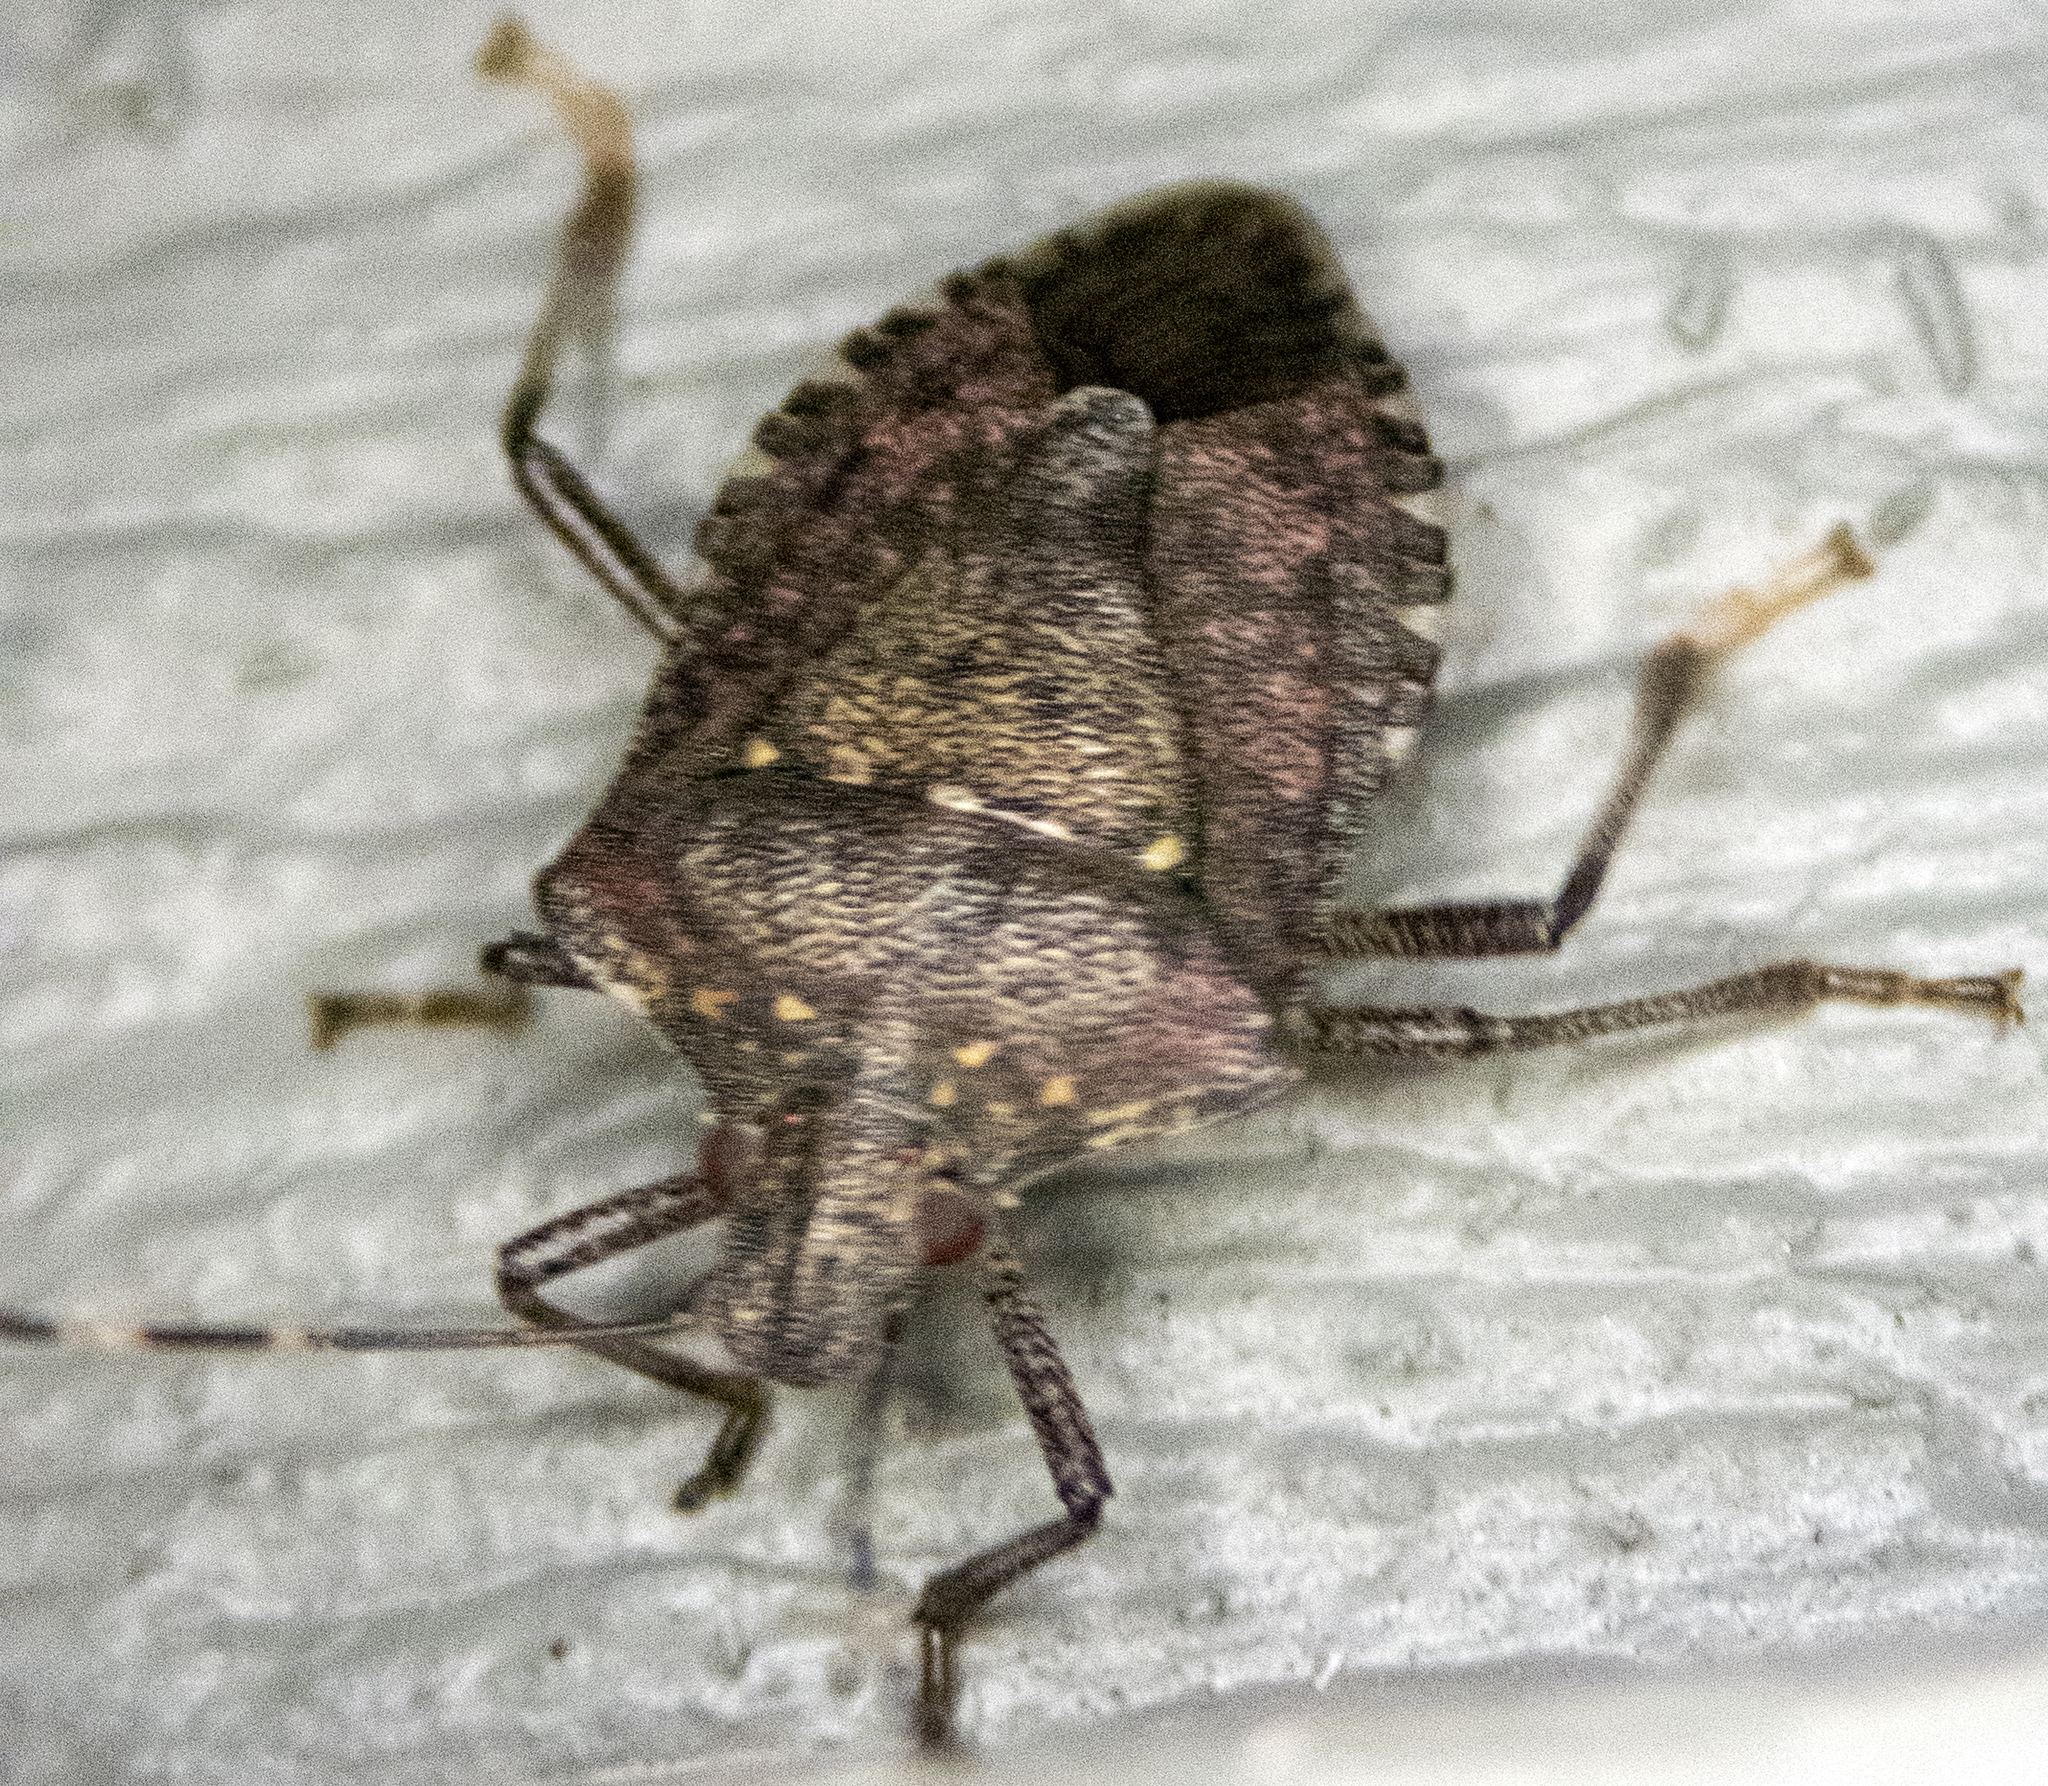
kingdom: Animalia
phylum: Arthropoda
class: Insecta
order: Hemiptera
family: Pentatomidae
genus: Halyomorpha
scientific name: Halyomorpha halys
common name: Brown marmorated stink bug
